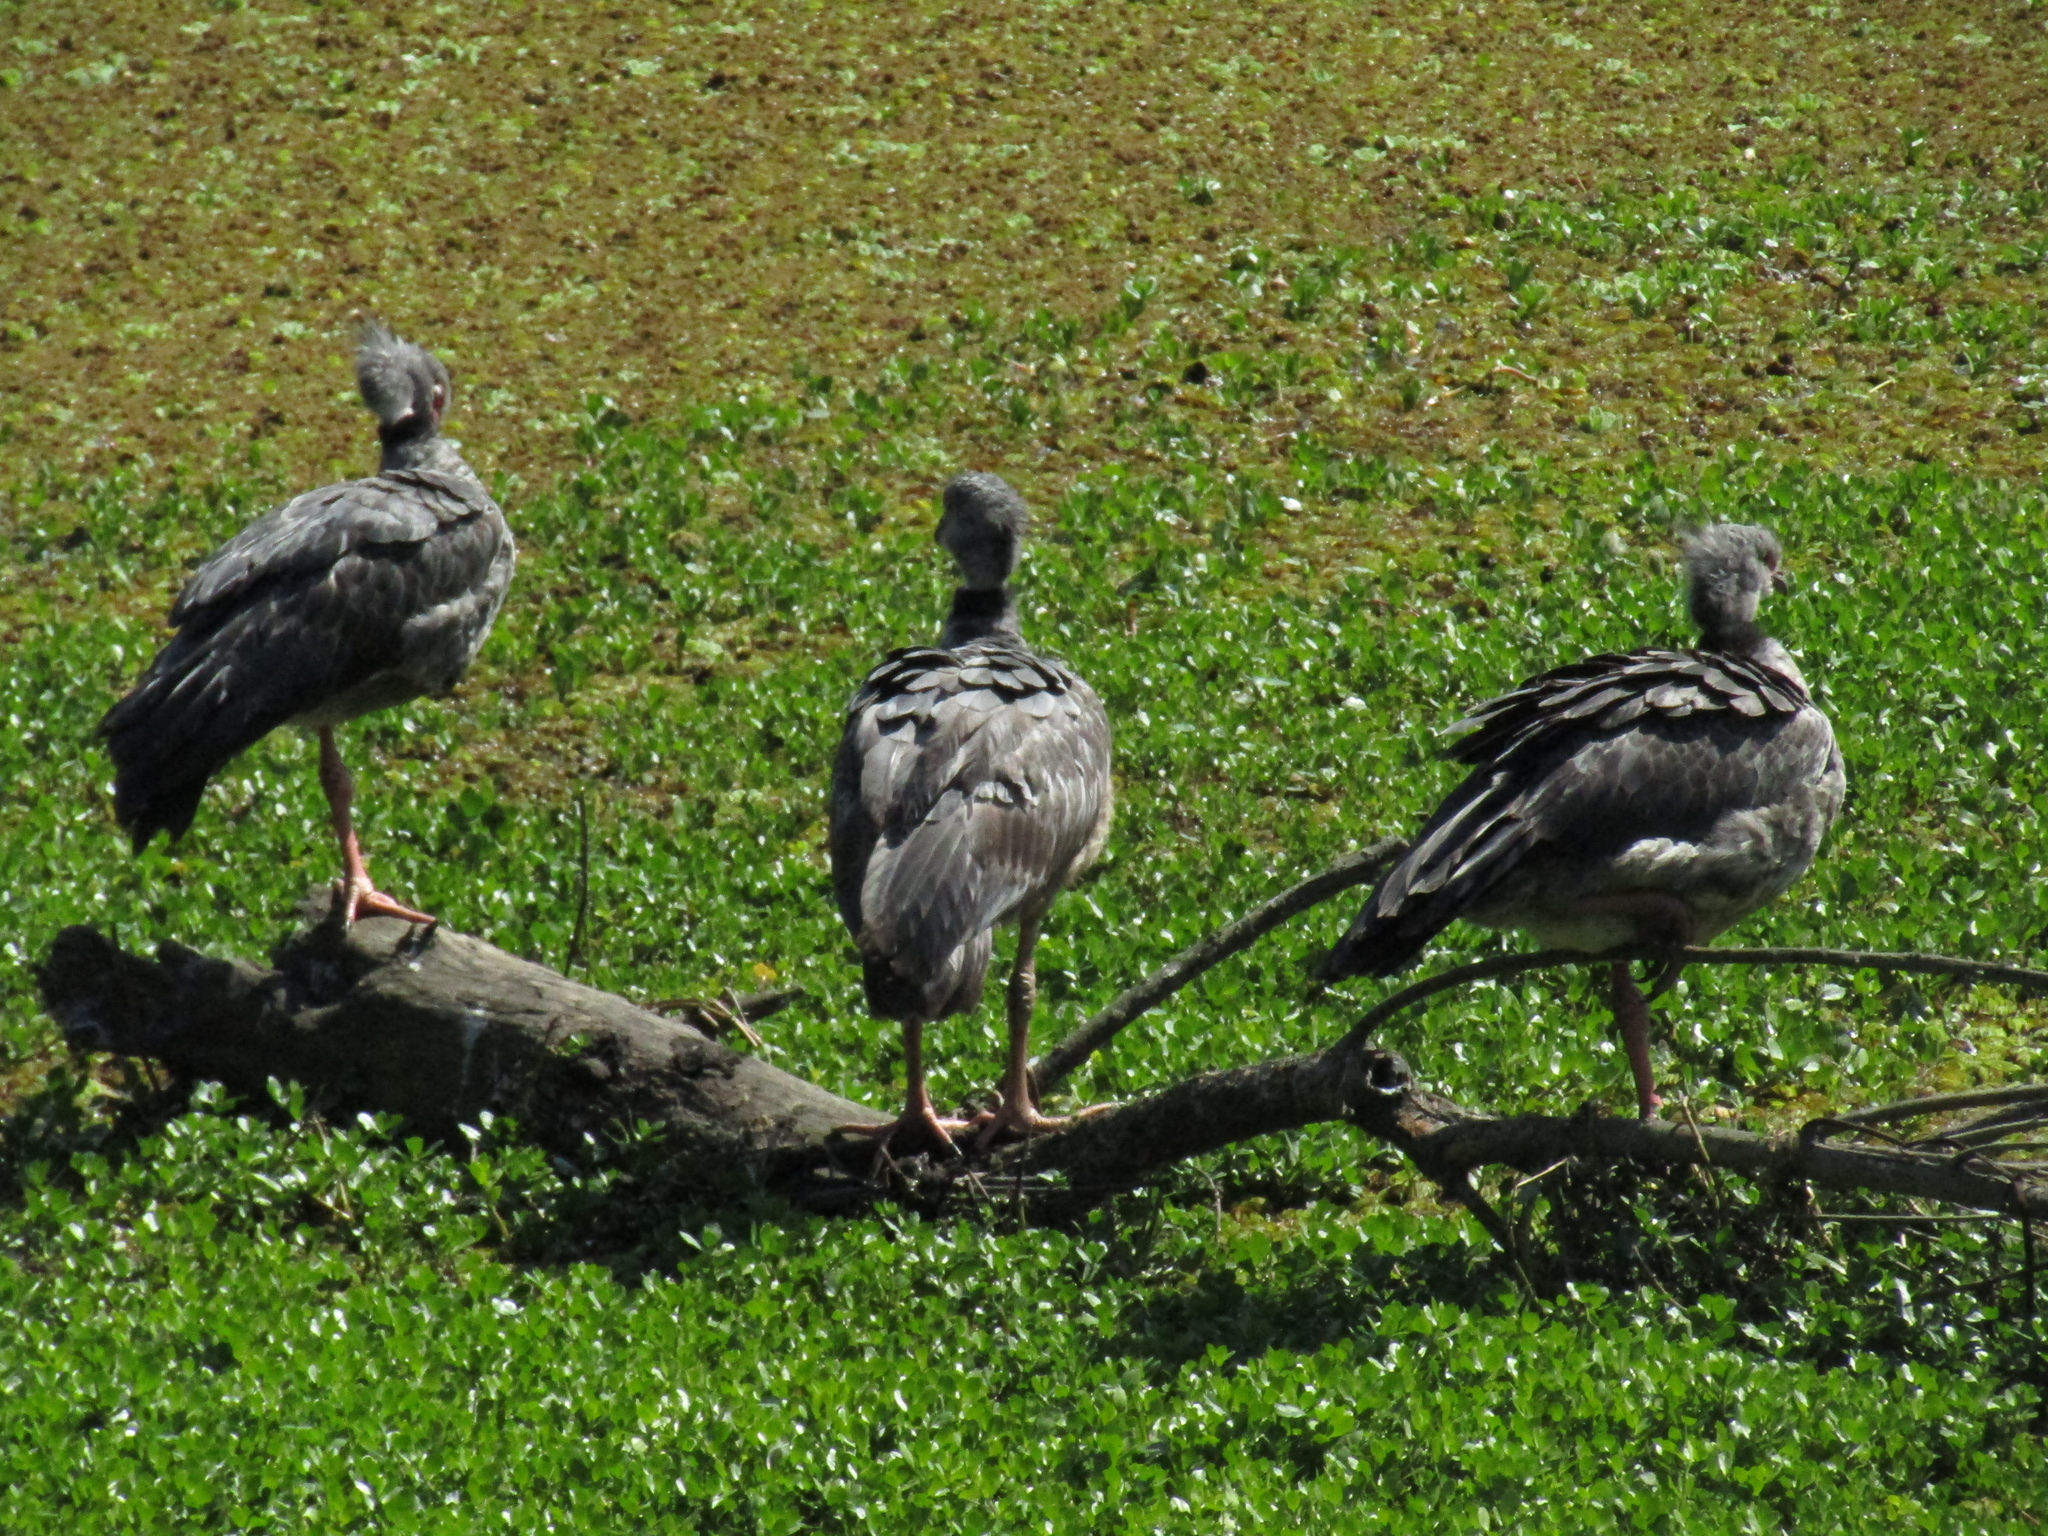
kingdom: Animalia
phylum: Chordata
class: Aves
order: Anseriformes
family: Anhimidae
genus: Chauna
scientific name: Chauna torquata
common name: Southern screamer
